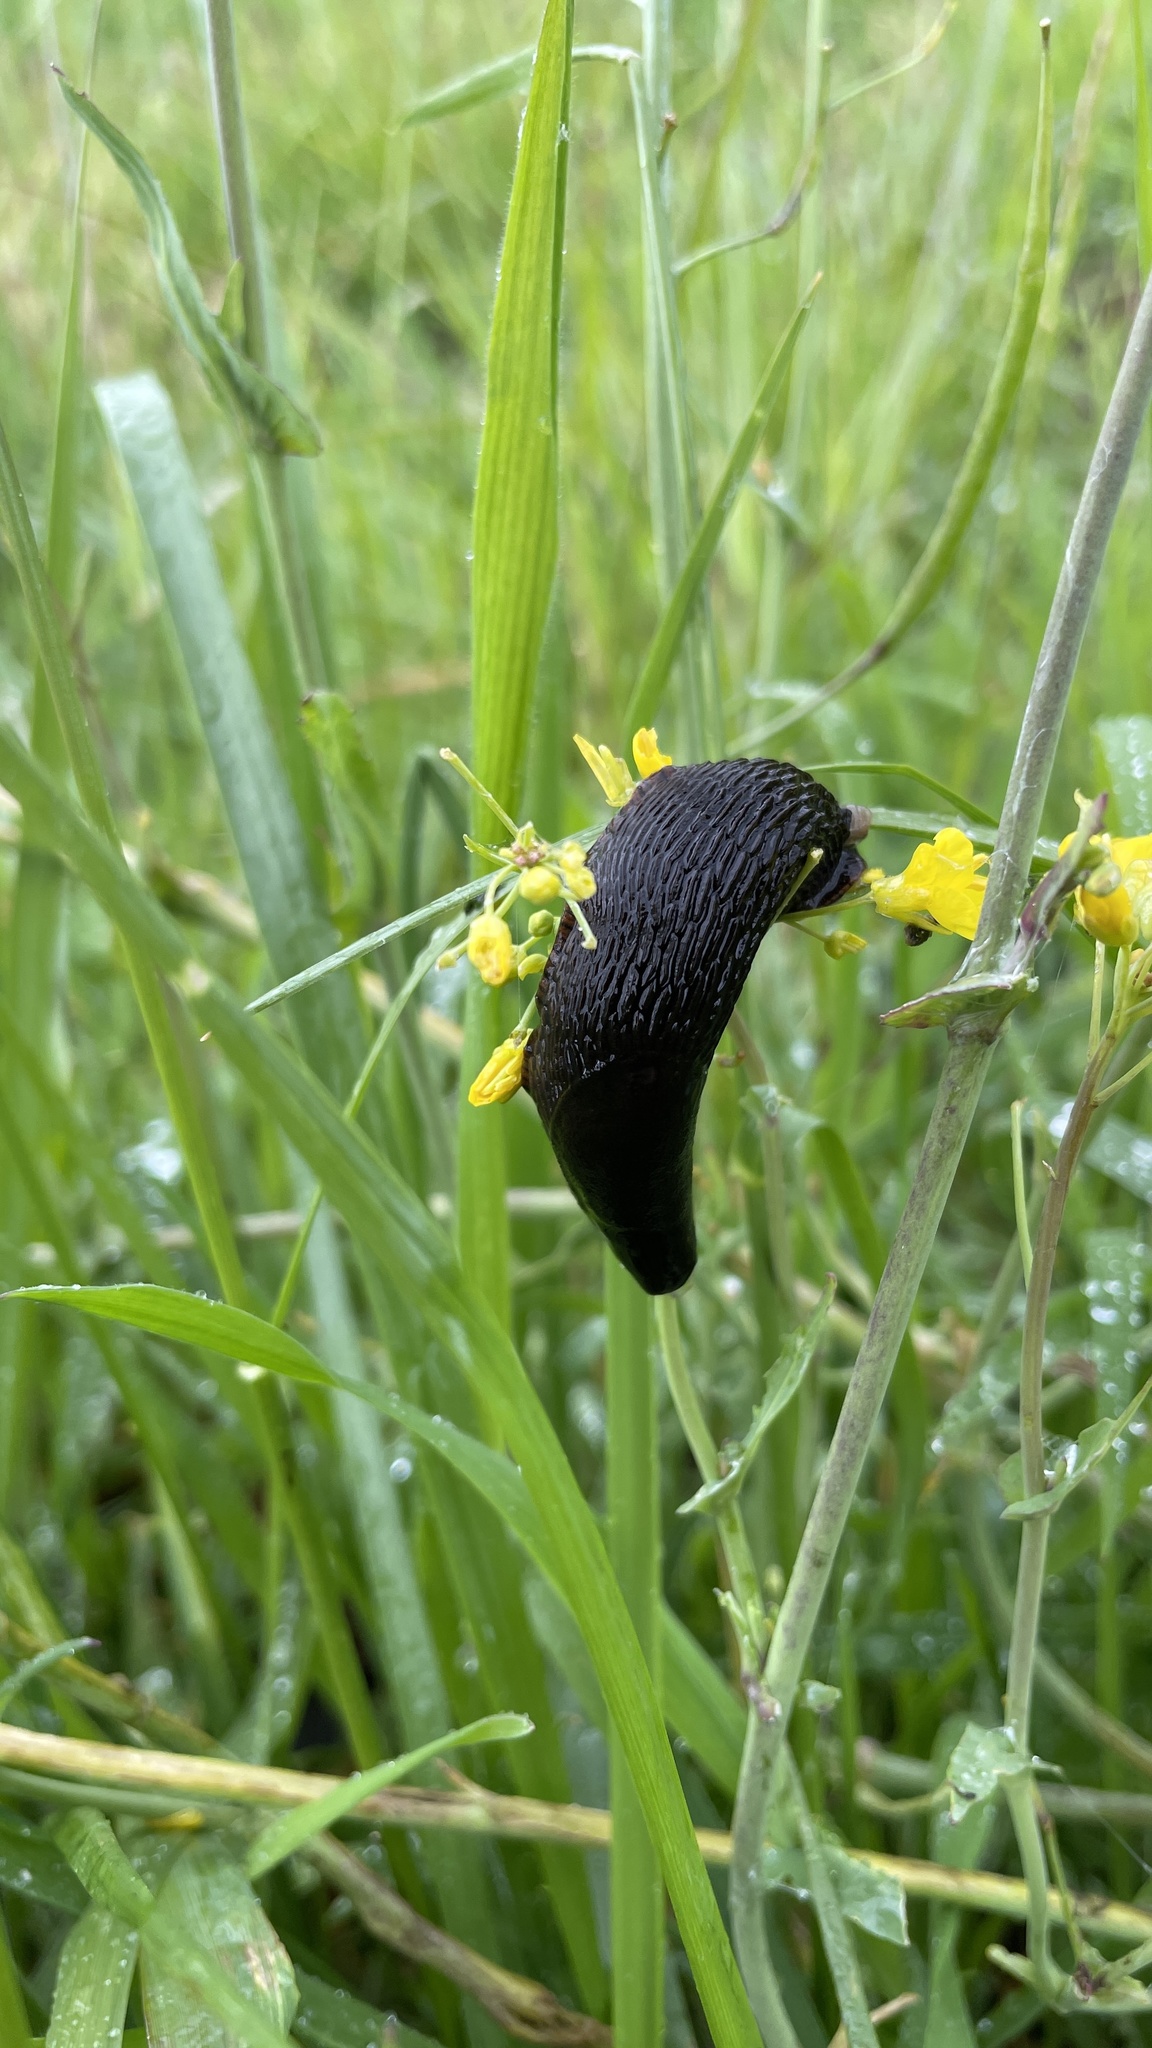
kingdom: Animalia
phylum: Mollusca
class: Gastropoda
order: Stylommatophora
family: Arionidae
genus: Arion
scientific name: Arion rufus
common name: Chocolate arion
